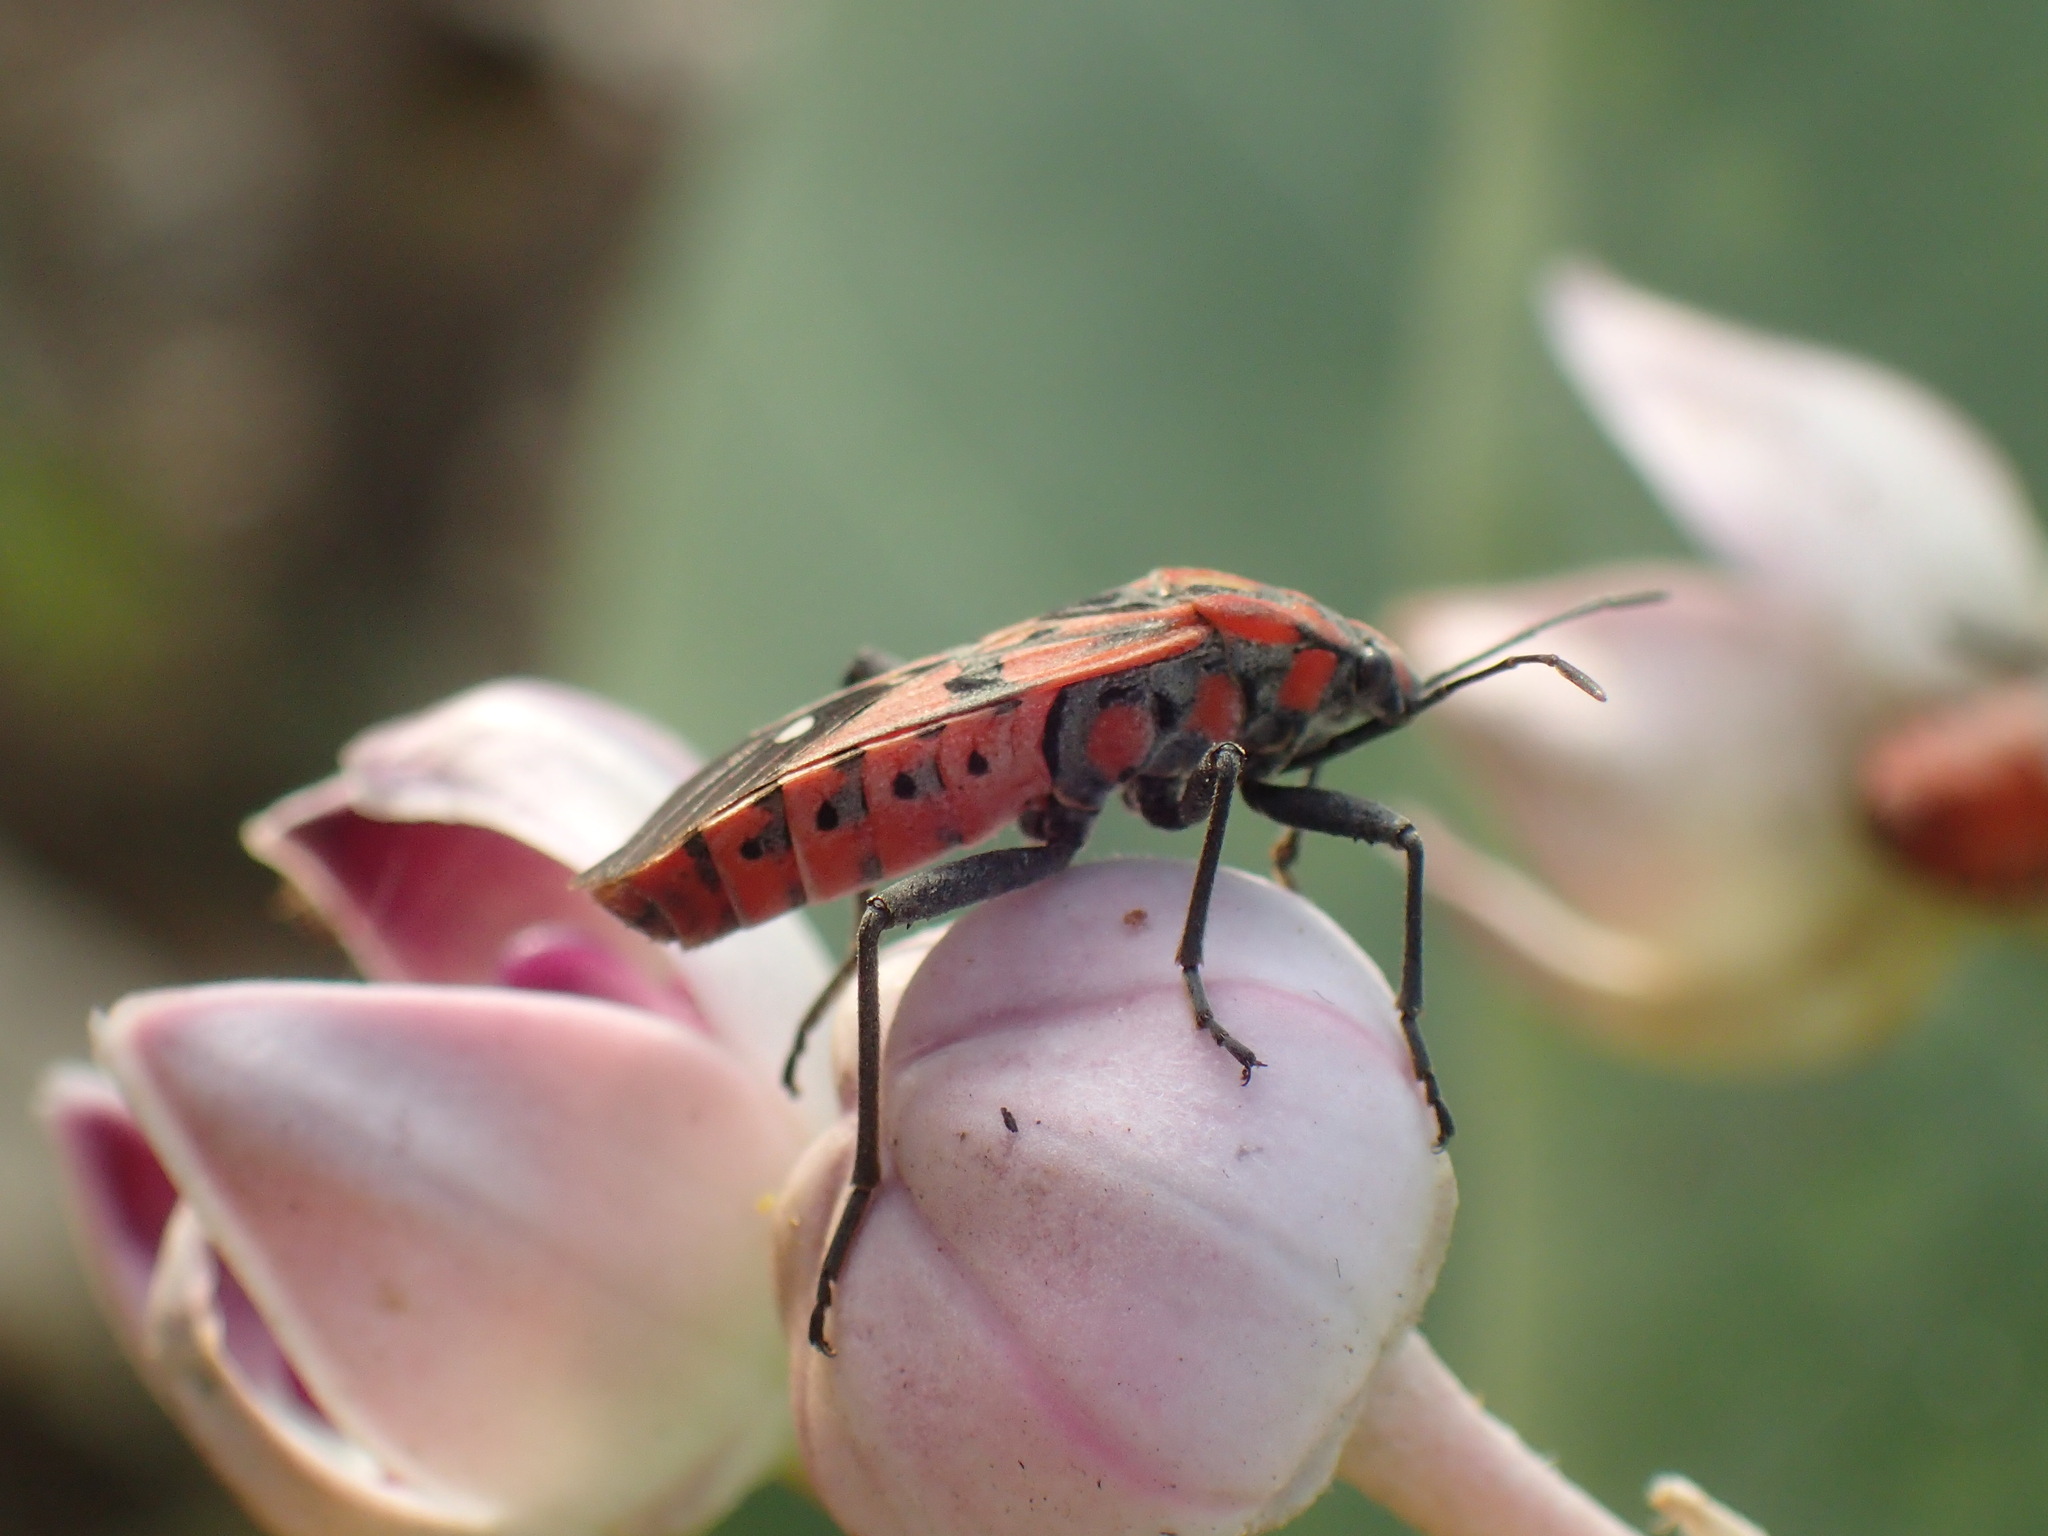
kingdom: Animalia
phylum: Arthropoda
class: Insecta
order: Hemiptera
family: Lygaeidae
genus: Spilostethus
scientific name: Spilostethus pandurus
